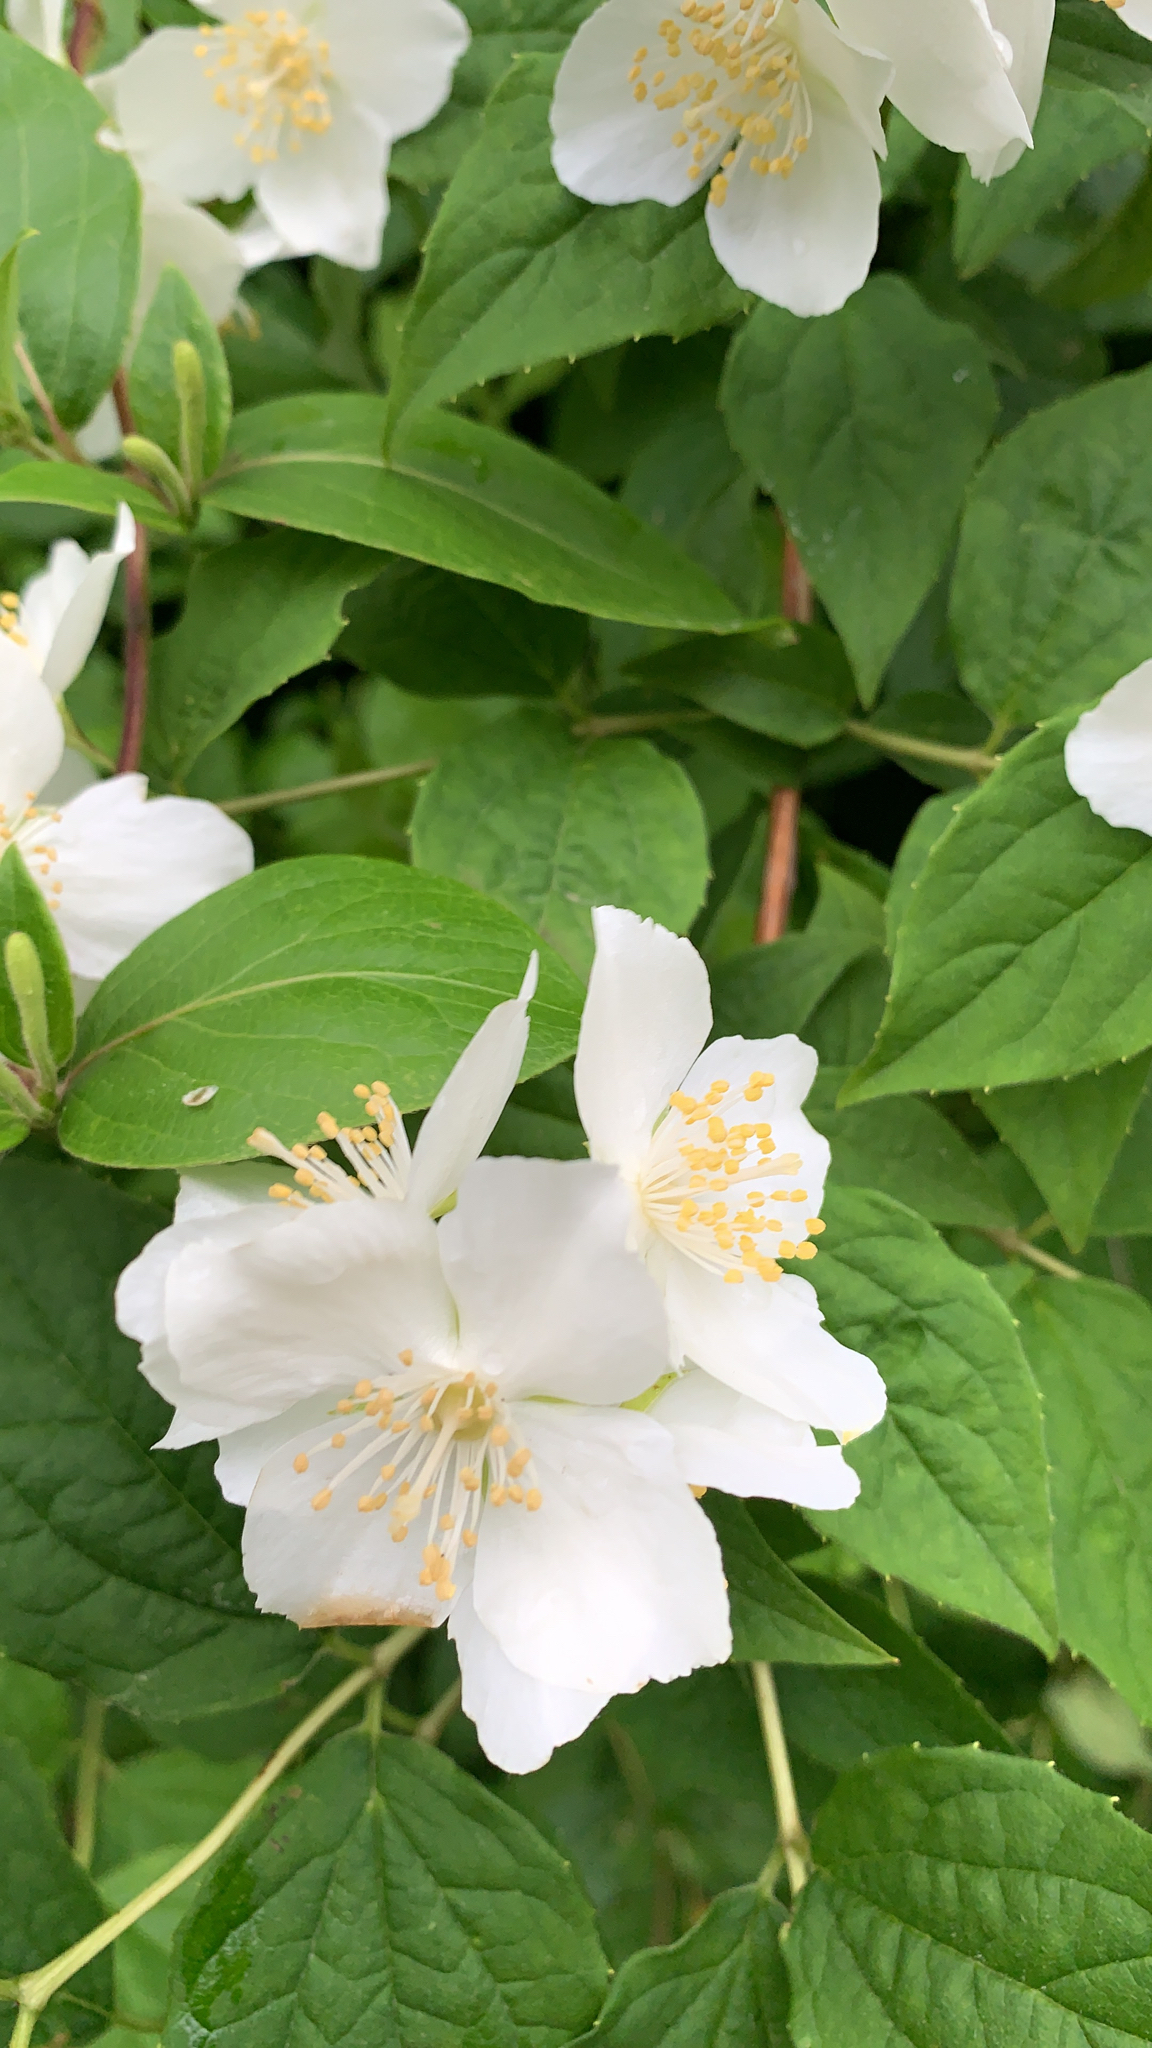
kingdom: Plantae
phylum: Tracheophyta
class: Magnoliopsida
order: Cornales
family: Hydrangeaceae
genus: Philadelphus
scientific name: Philadelphus coronarius
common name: Mock orange
